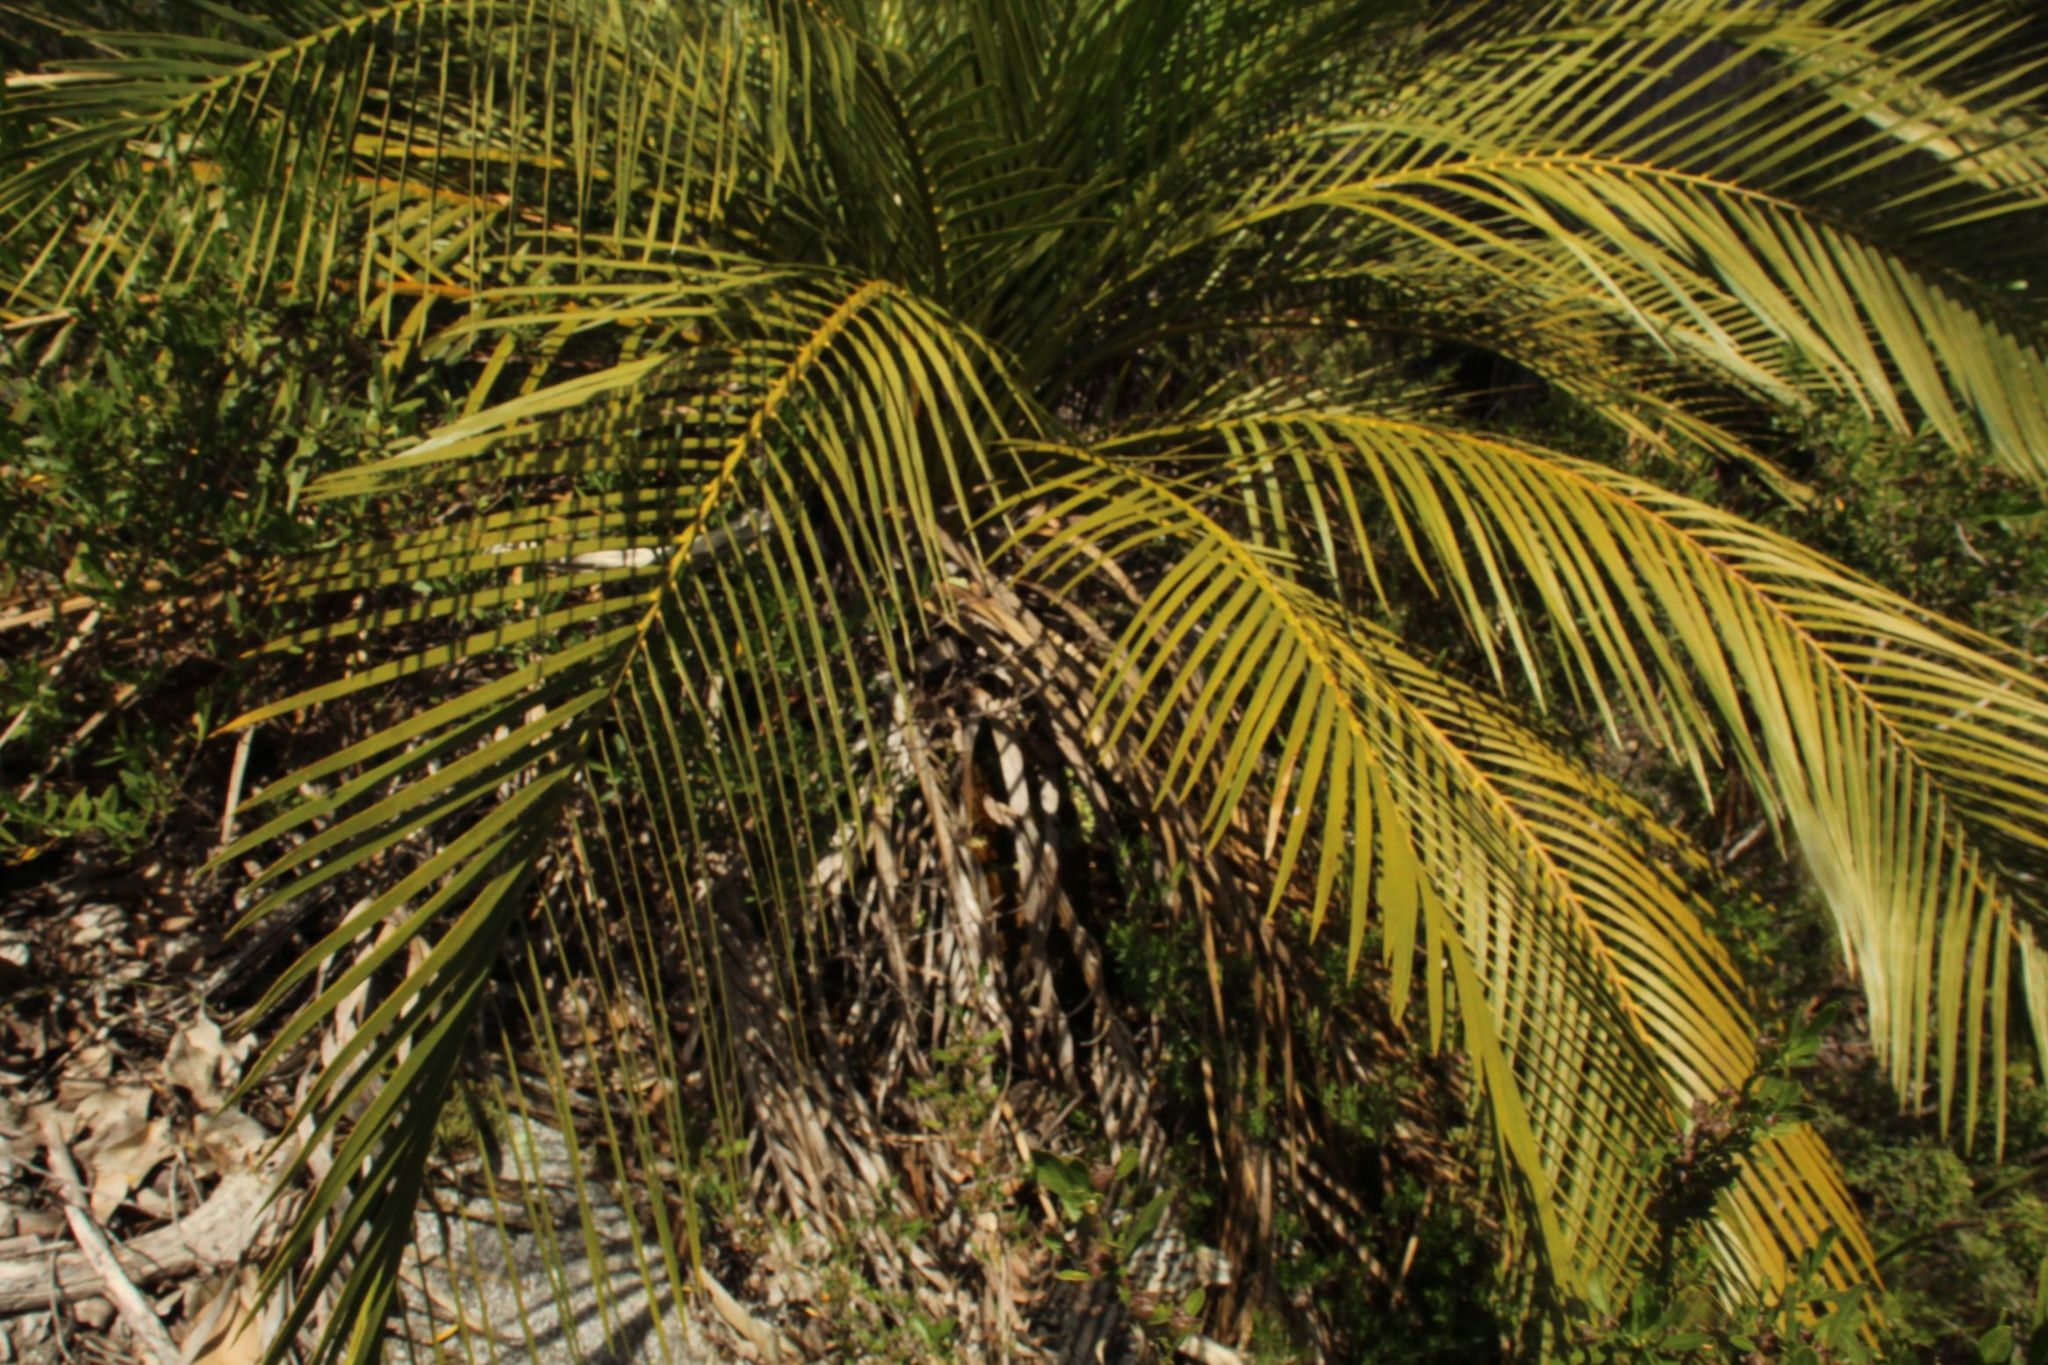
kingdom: Plantae
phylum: Tracheophyta
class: Cycadopsida
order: Cycadales
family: Zamiaceae
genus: Macrozamia
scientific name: Macrozamia riedlei
